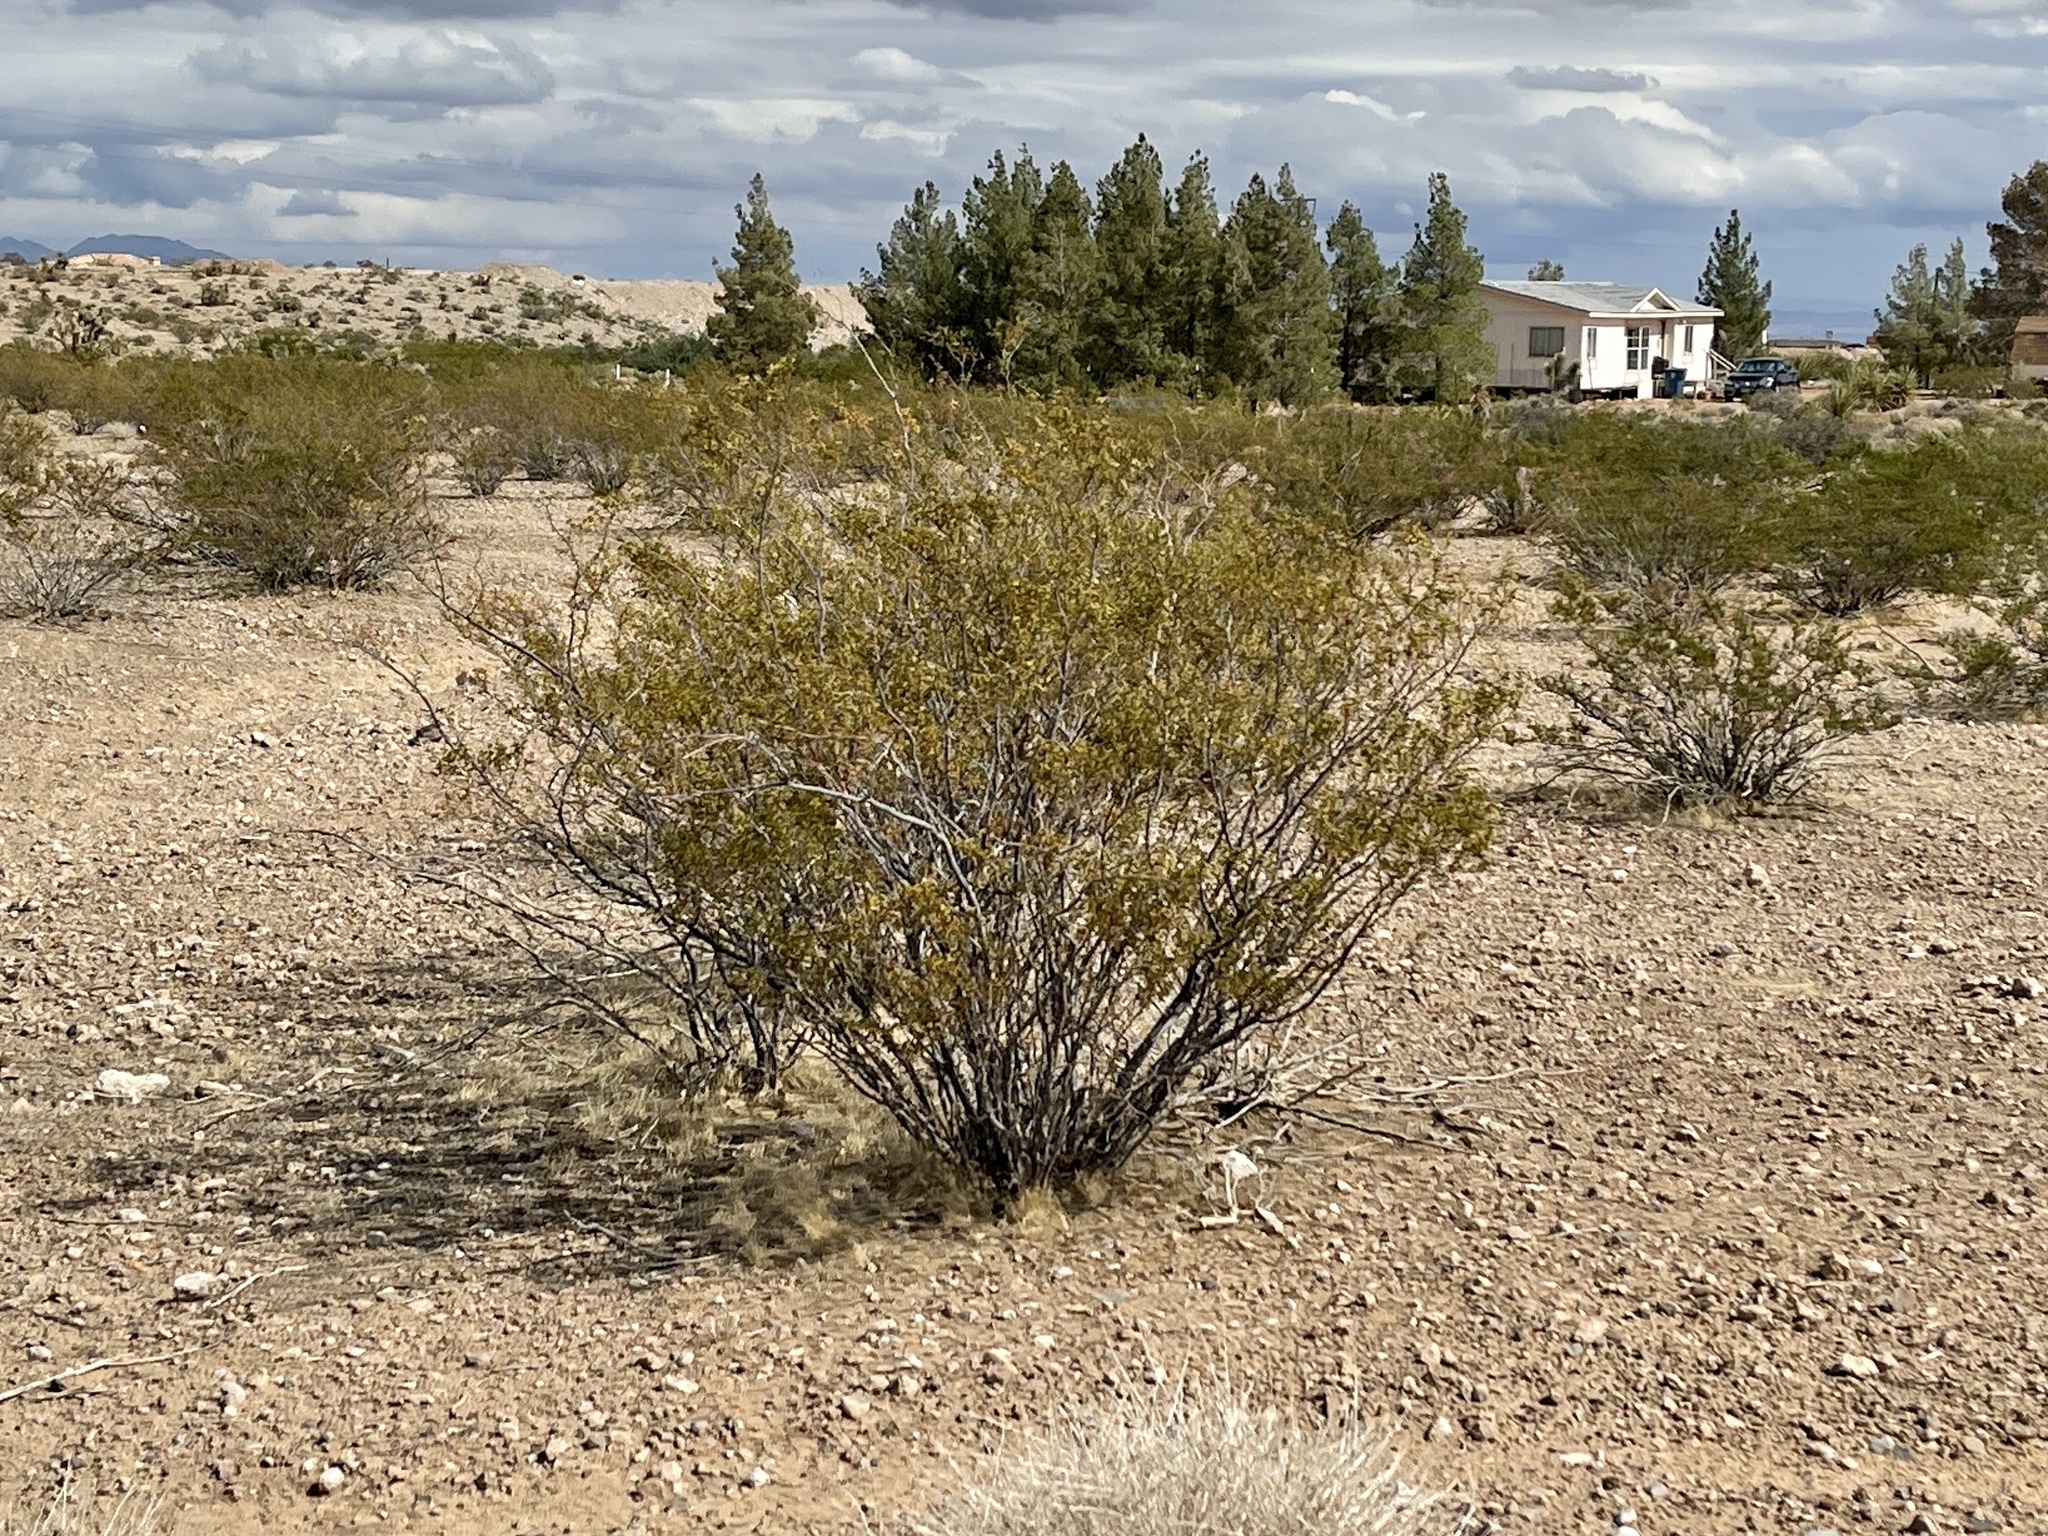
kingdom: Plantae
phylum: Tracheophyta
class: Magnoliopsida
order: Zygophyllales
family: Zygophyllaceae
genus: Larrea
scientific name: Larrea tridentata
